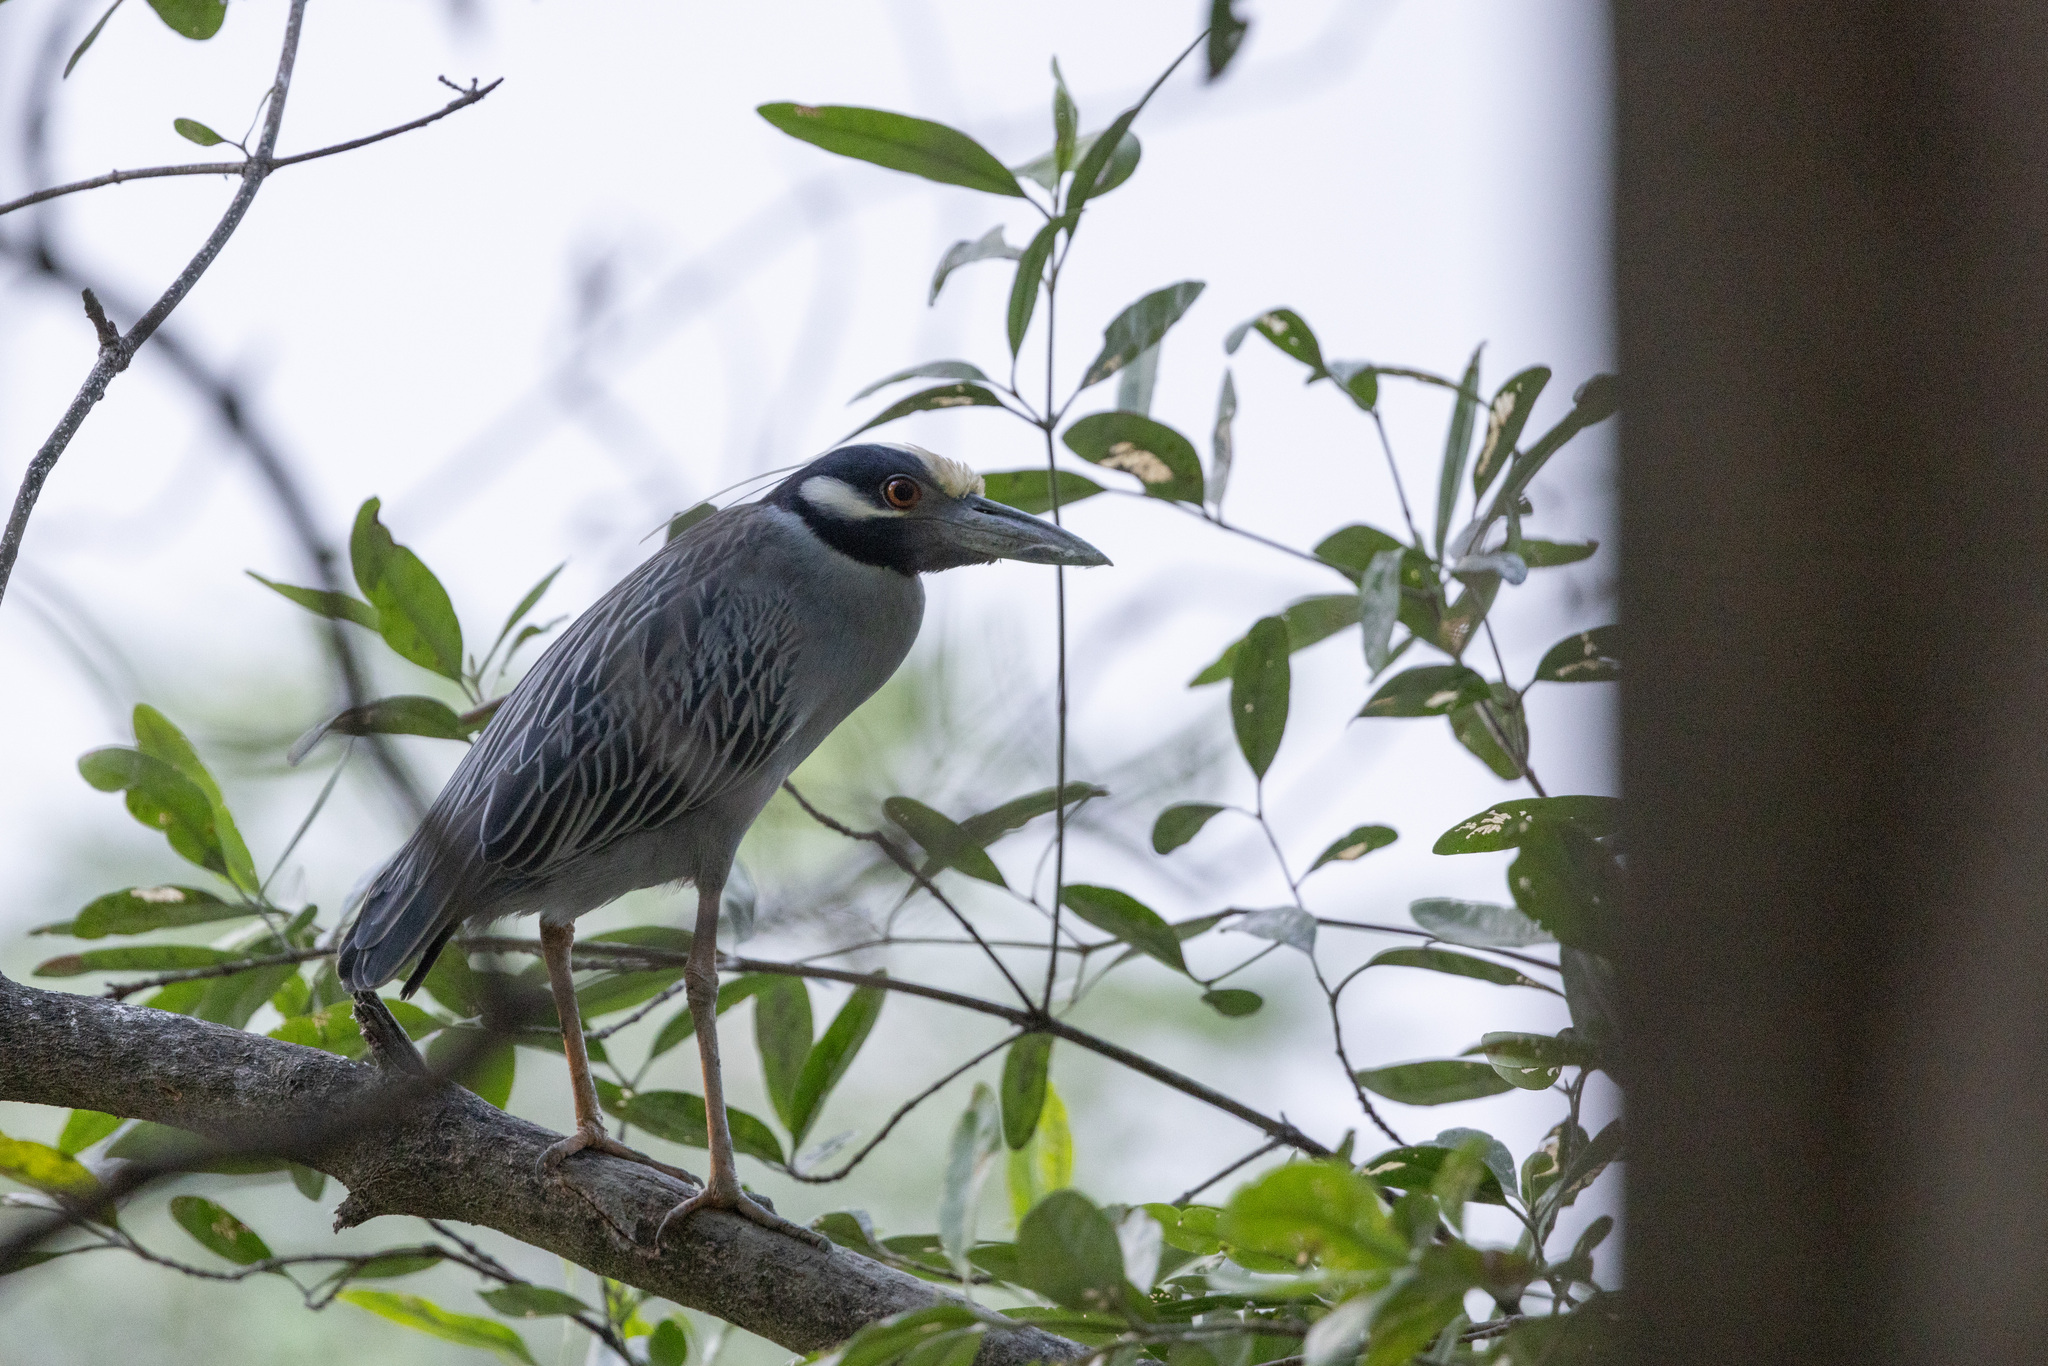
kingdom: Animalia
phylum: Chordata
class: Aves
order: Pelecaniformes
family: Ardeidae
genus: Nyctanassa
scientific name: Nyctanassa violacea
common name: Yellow-crowned night heron
